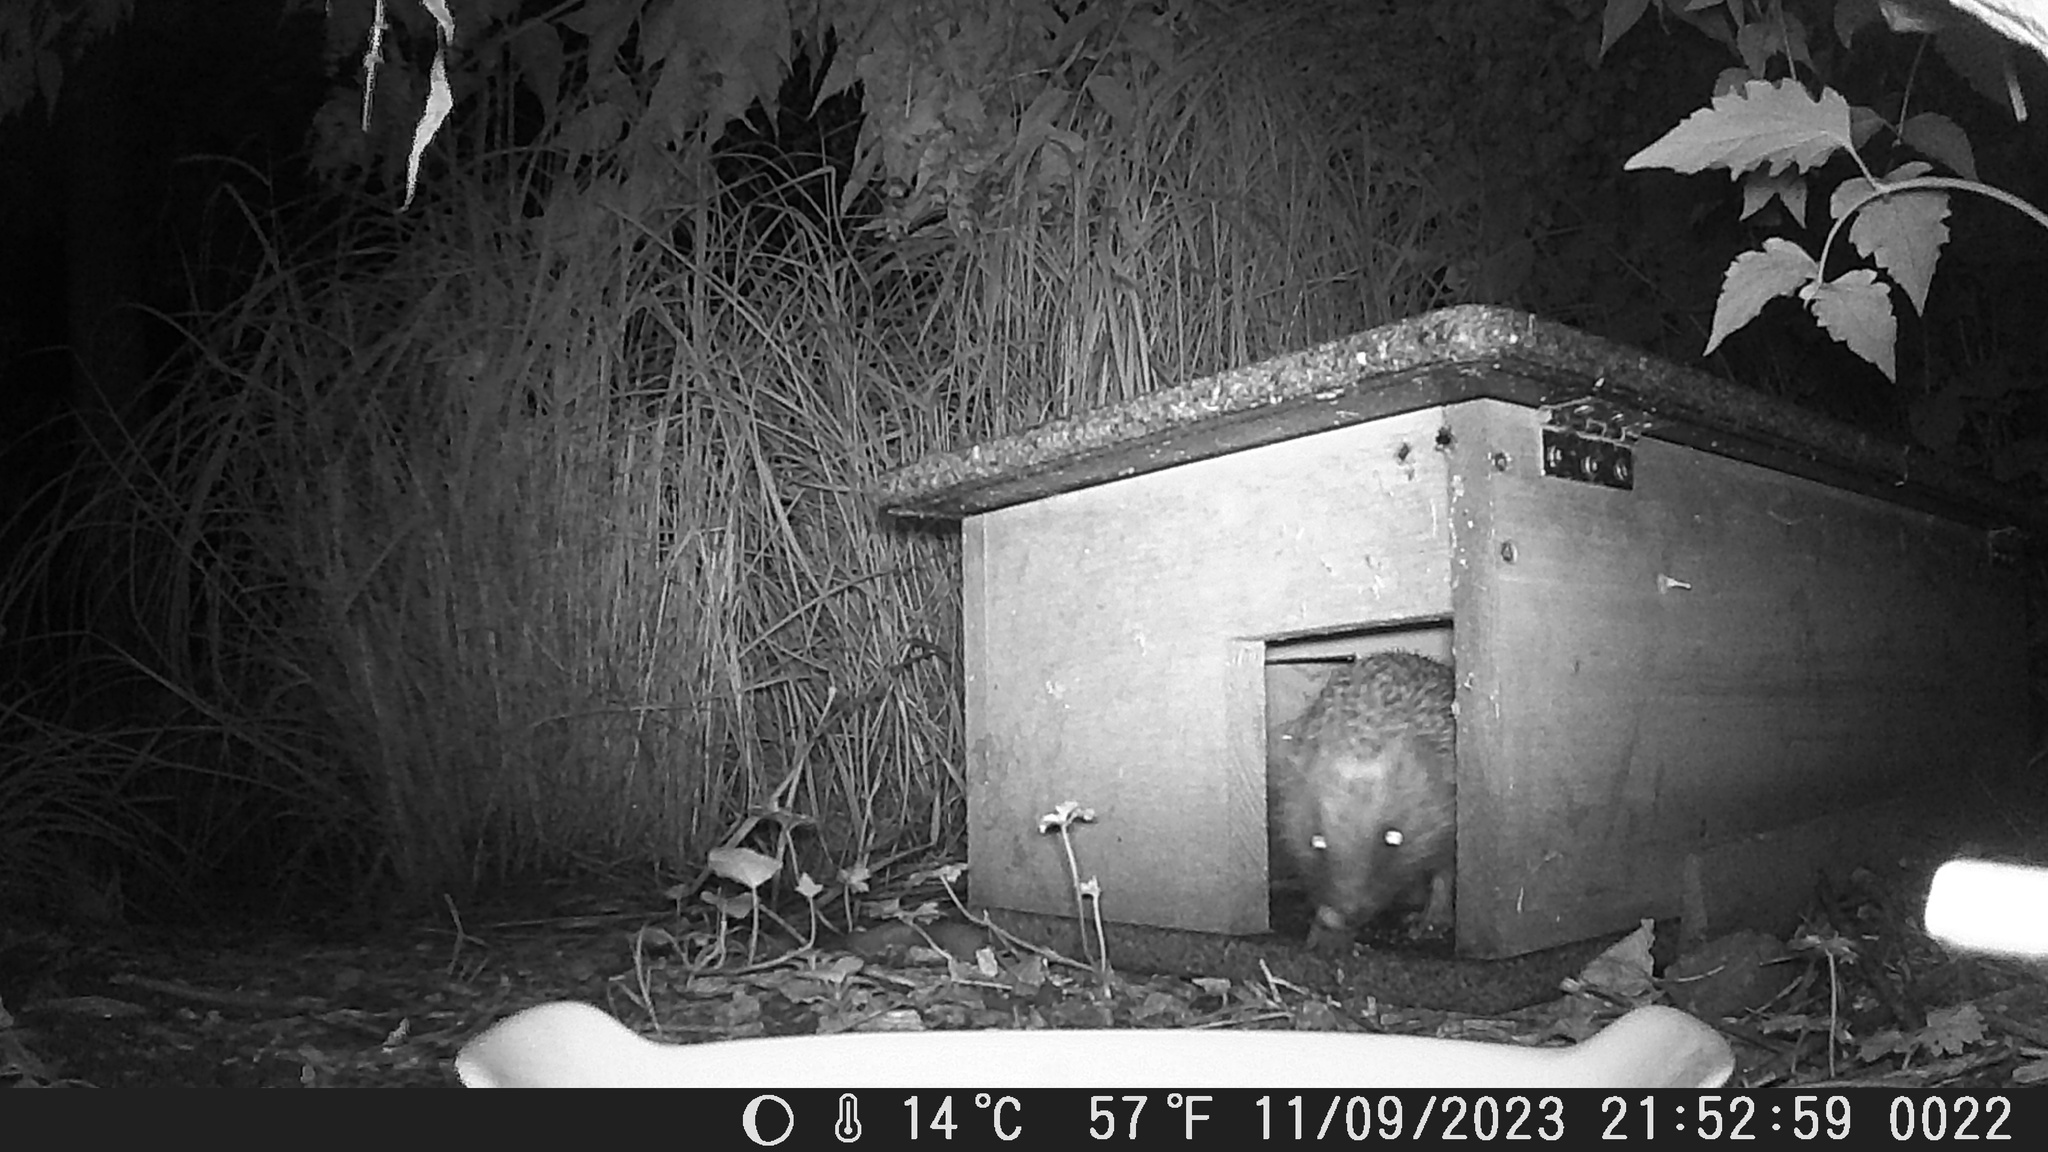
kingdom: Animalia
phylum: Chordata
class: Mammalia
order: Erinaceomorpha
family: Erinaceidae
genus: Erinaceus
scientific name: Erinaceus europaeus
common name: West european hedgehog
